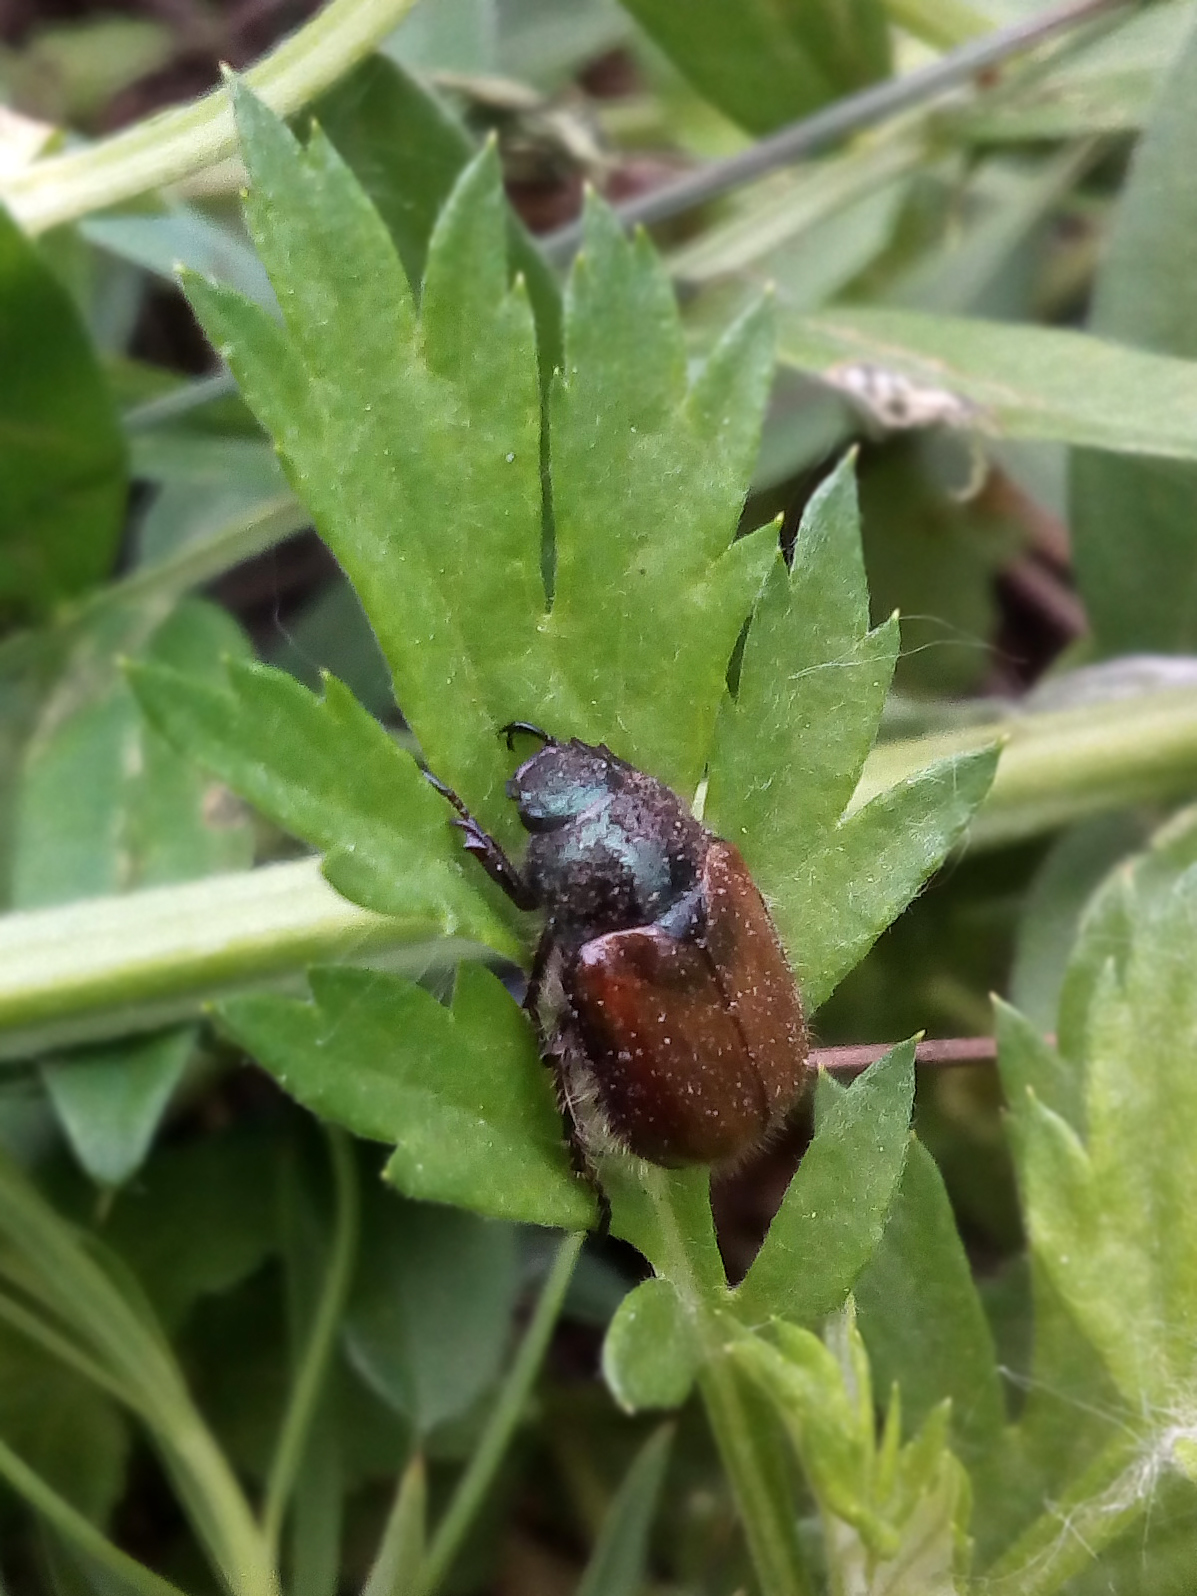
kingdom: Animalia
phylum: Arthropoda
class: Insecta
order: Coleoptera
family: Scarabaeidae
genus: Phyllopertha
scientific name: Phyllopertha horticola
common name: Garden chafer
